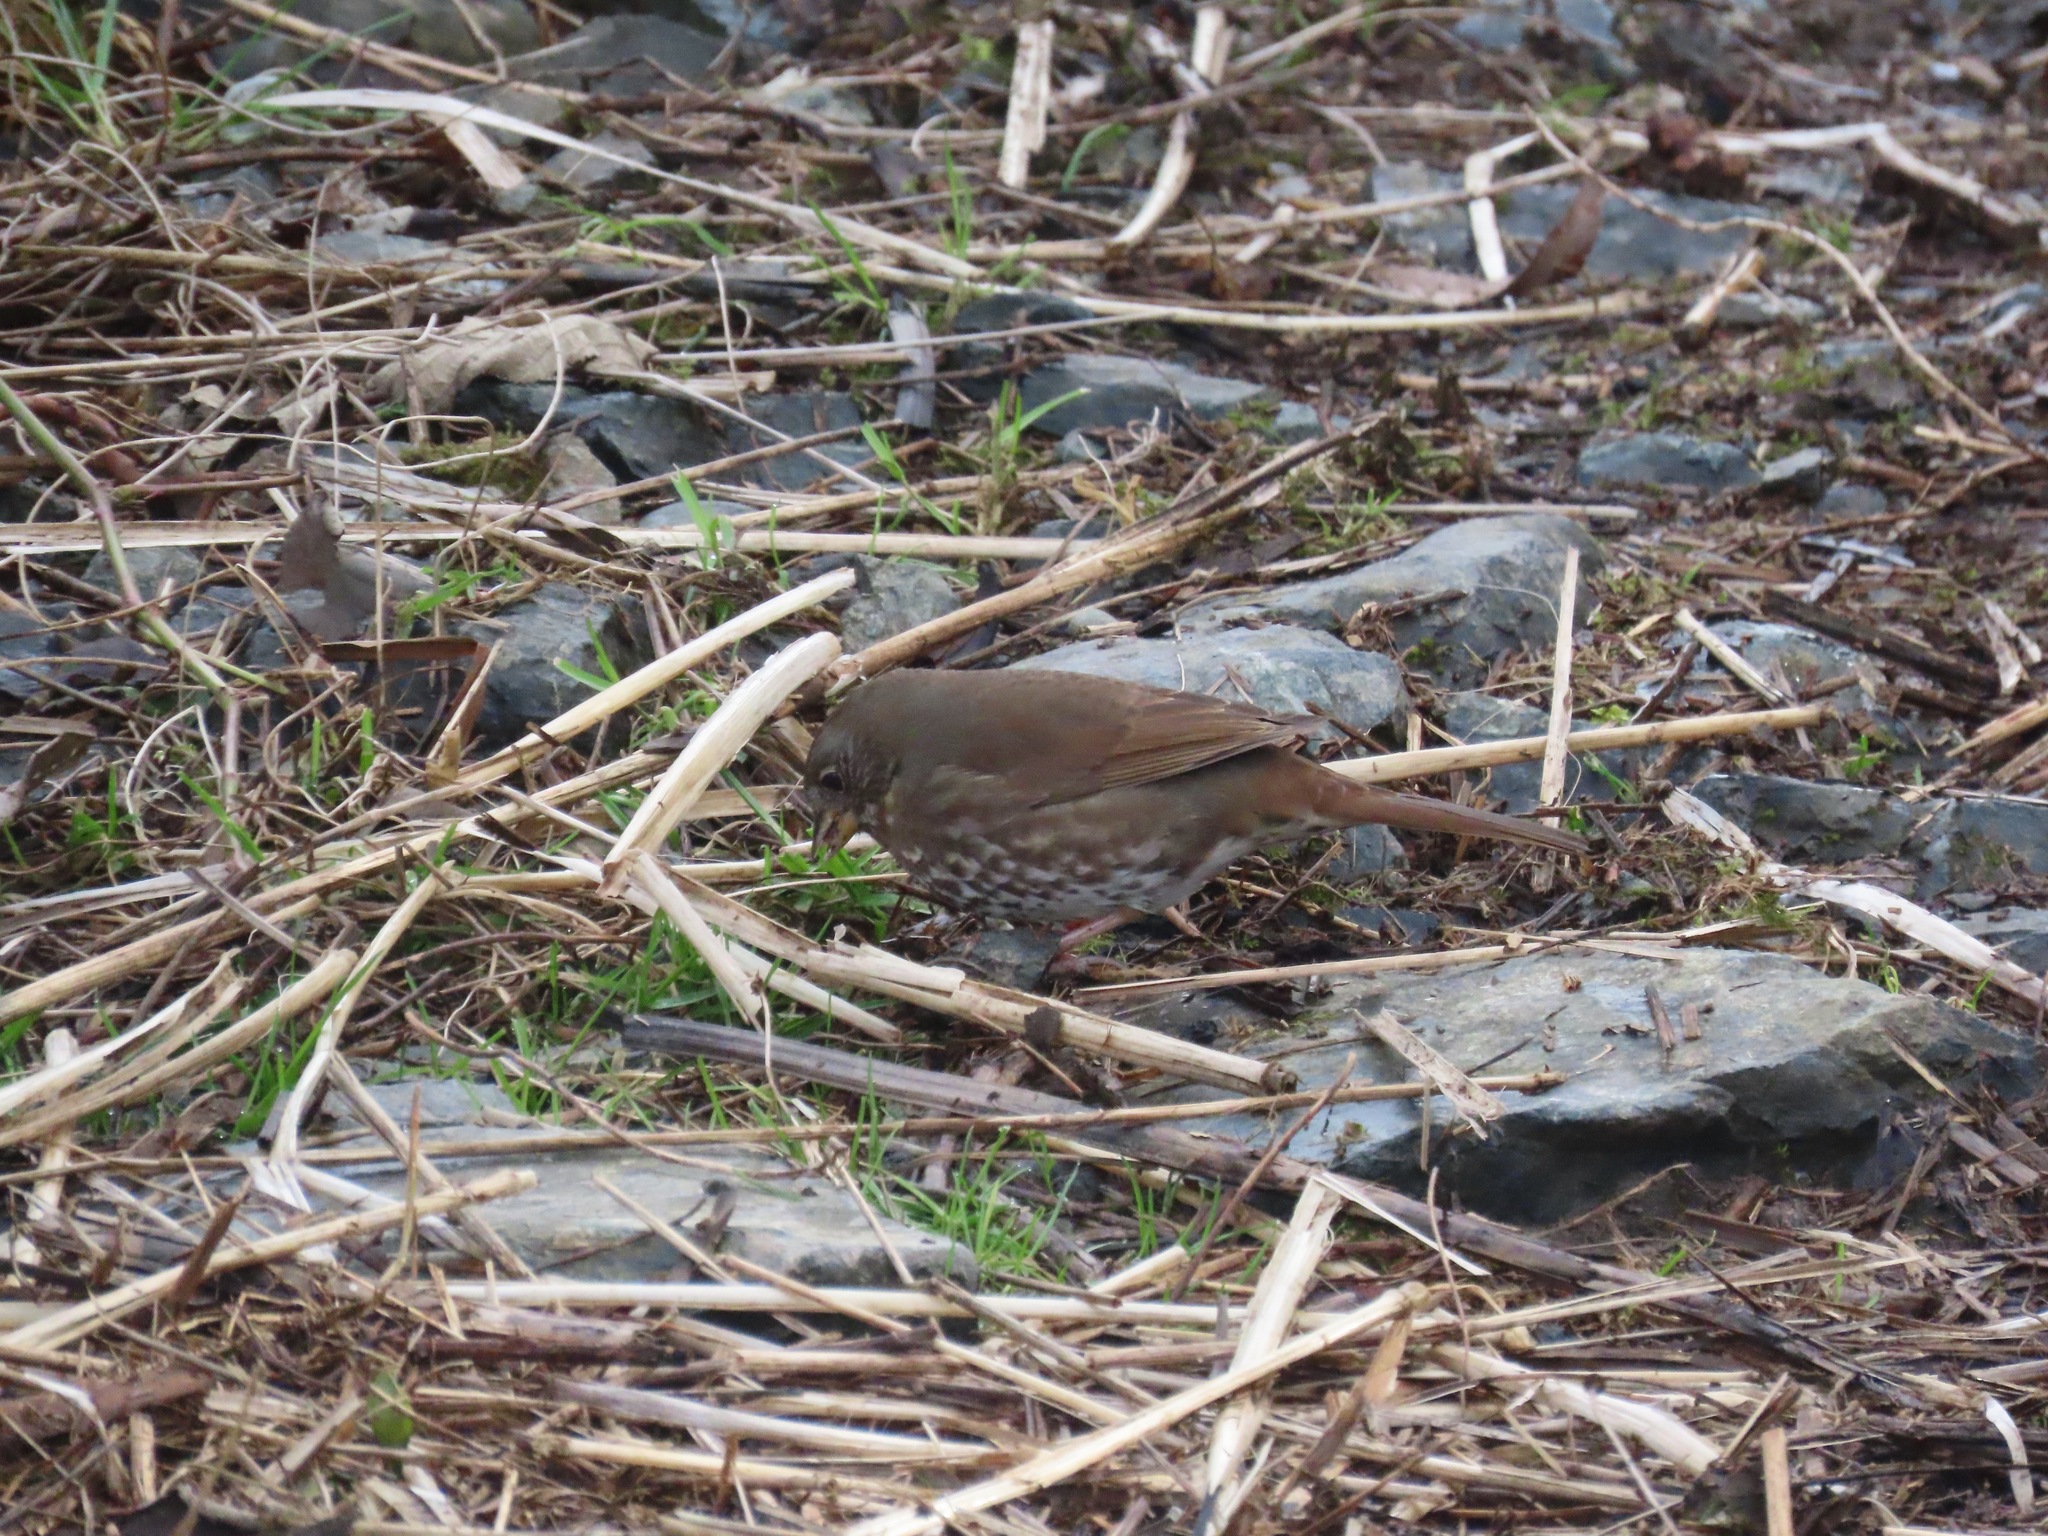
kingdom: Animalia
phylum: Chordata
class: Aves
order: Passeriformes
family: Passerellidae
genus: Passerella
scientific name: Passerella iliaca
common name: Fox sparrow
